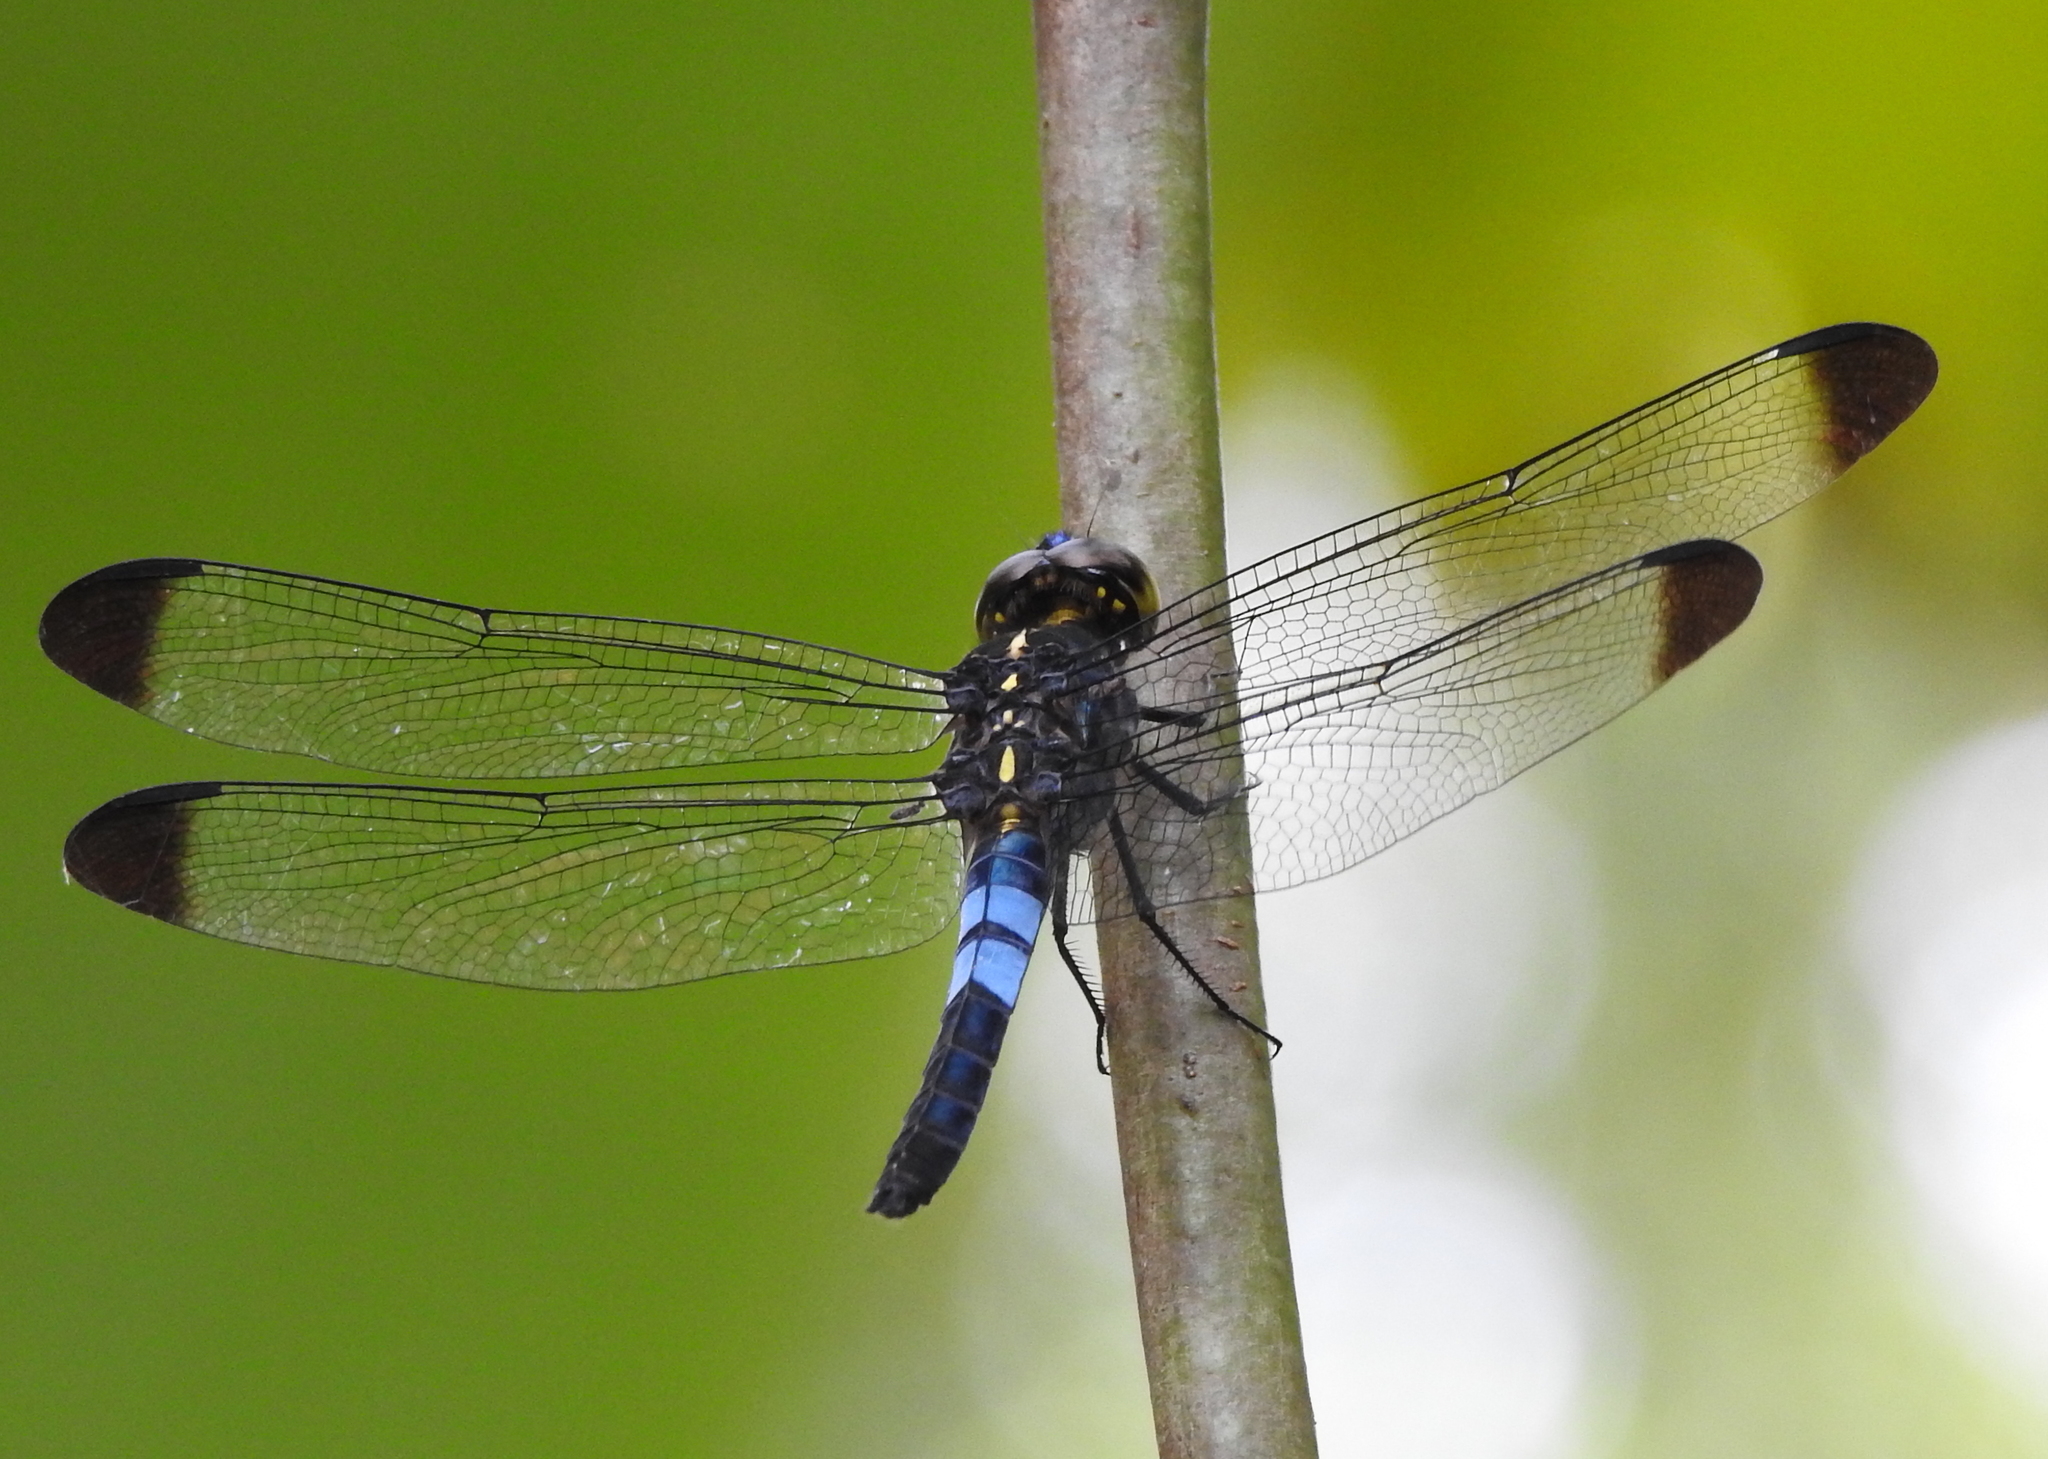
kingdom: Animalia
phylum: Arthropoda
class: Insecta
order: Odonata
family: Libellulidae
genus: Cratilla
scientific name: Cratilla metallica
